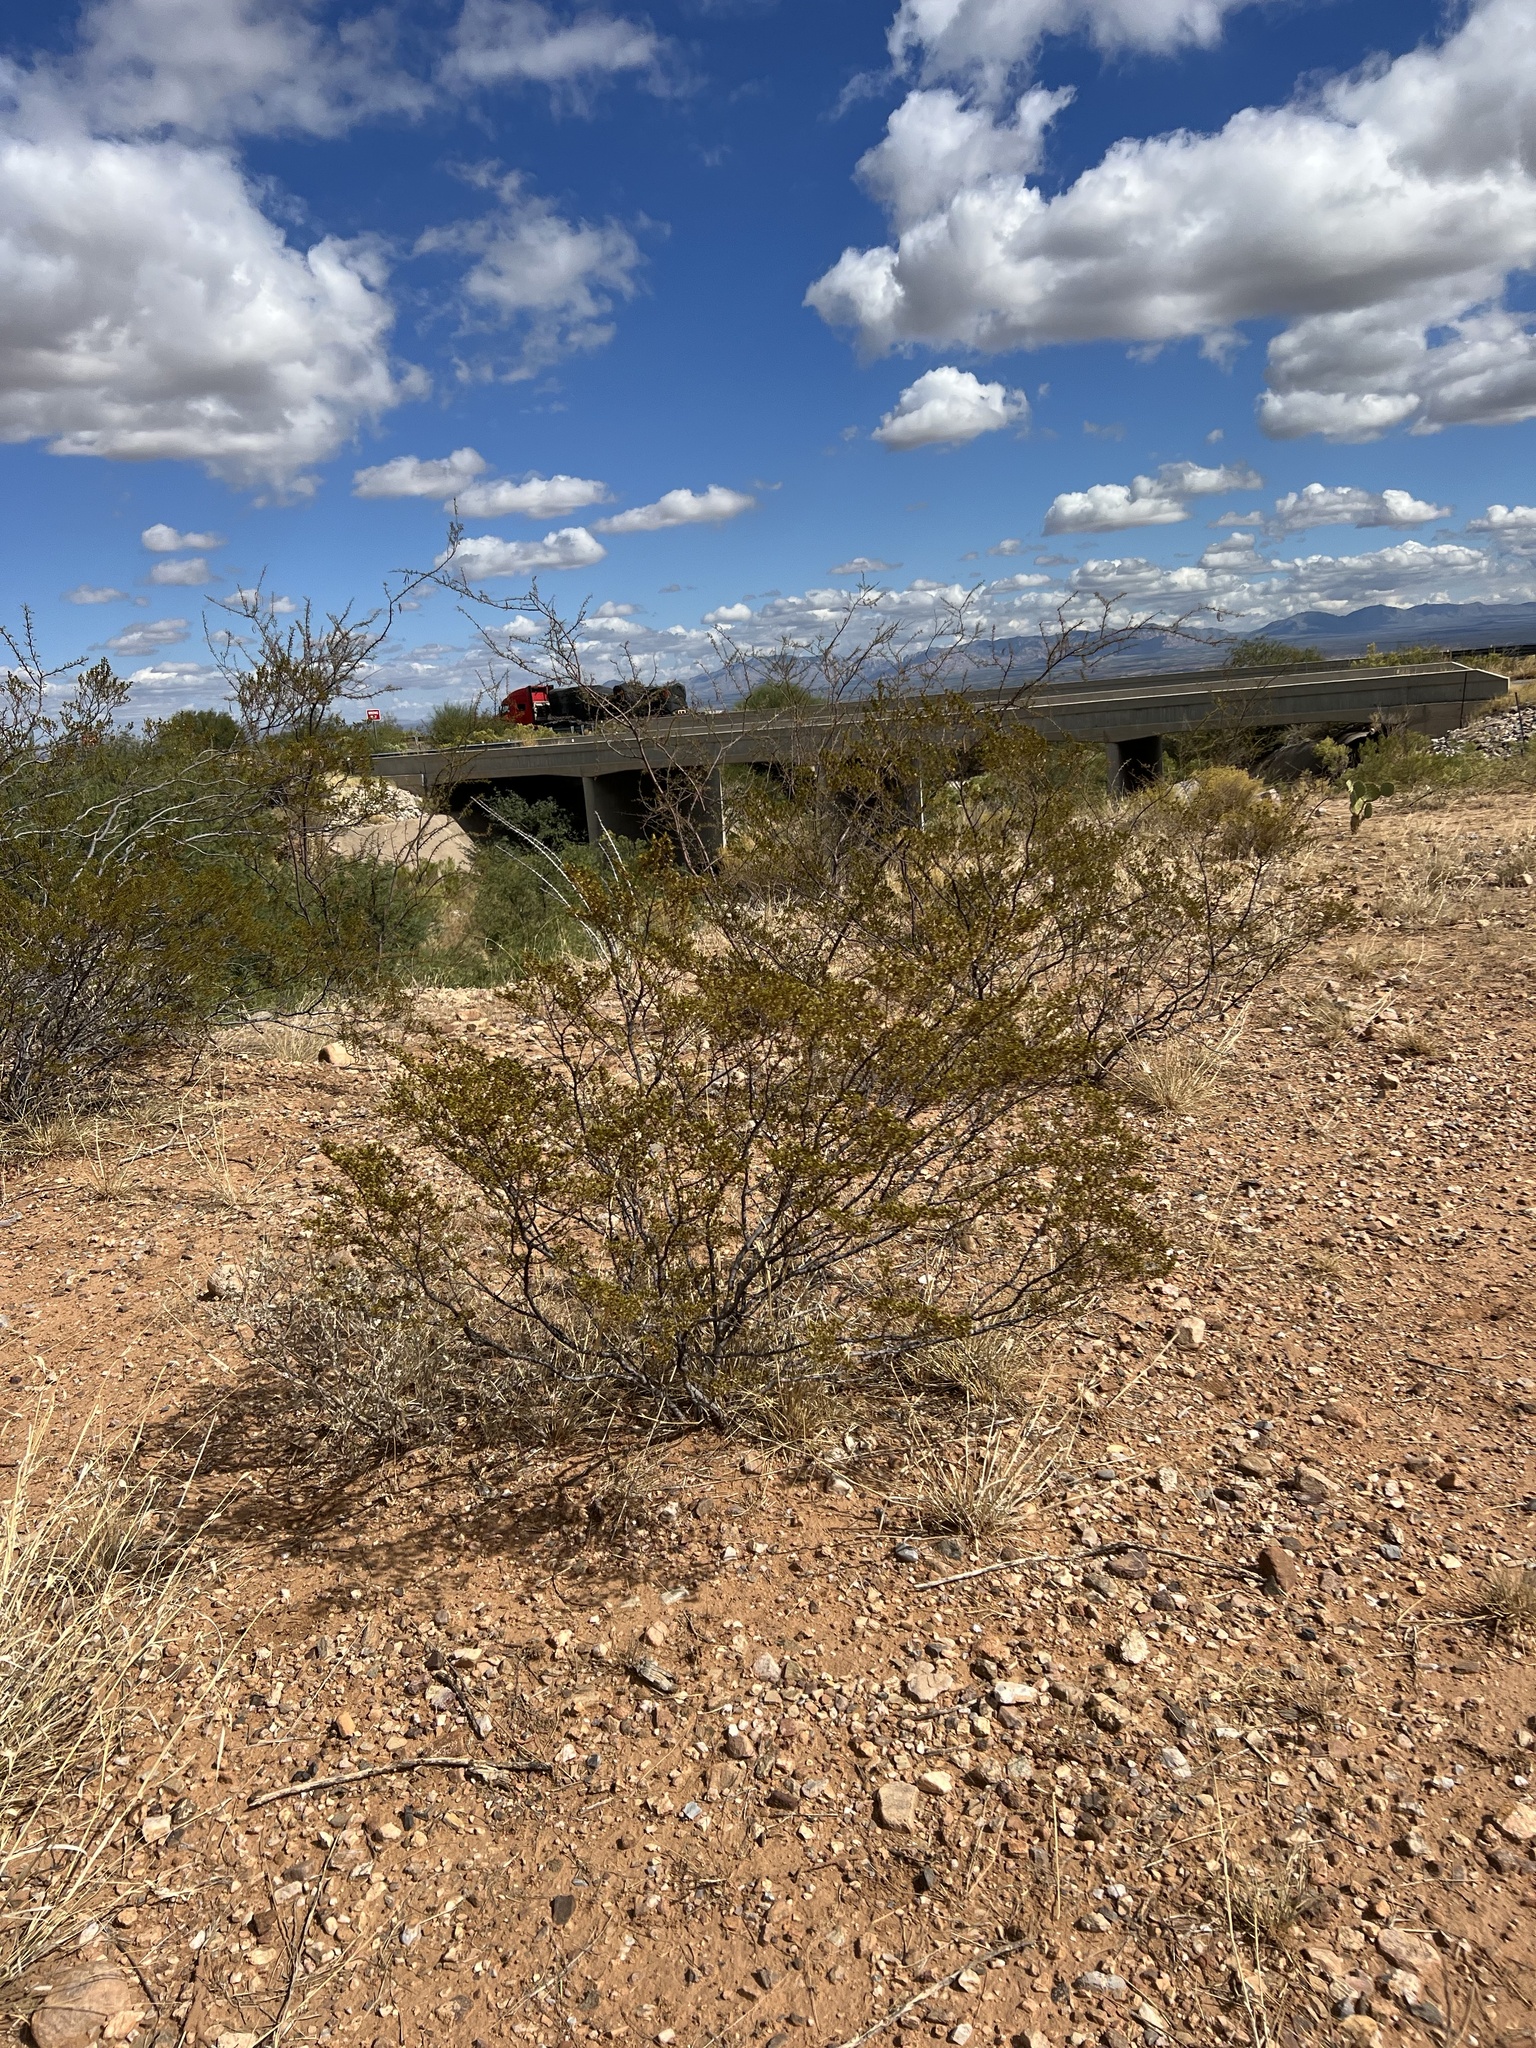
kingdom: Plantae
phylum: Tracheophyta
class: Magnoliopsida
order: Zygophyllales
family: Zygophyllaceae
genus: Larrea
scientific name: Larrea tridentata
